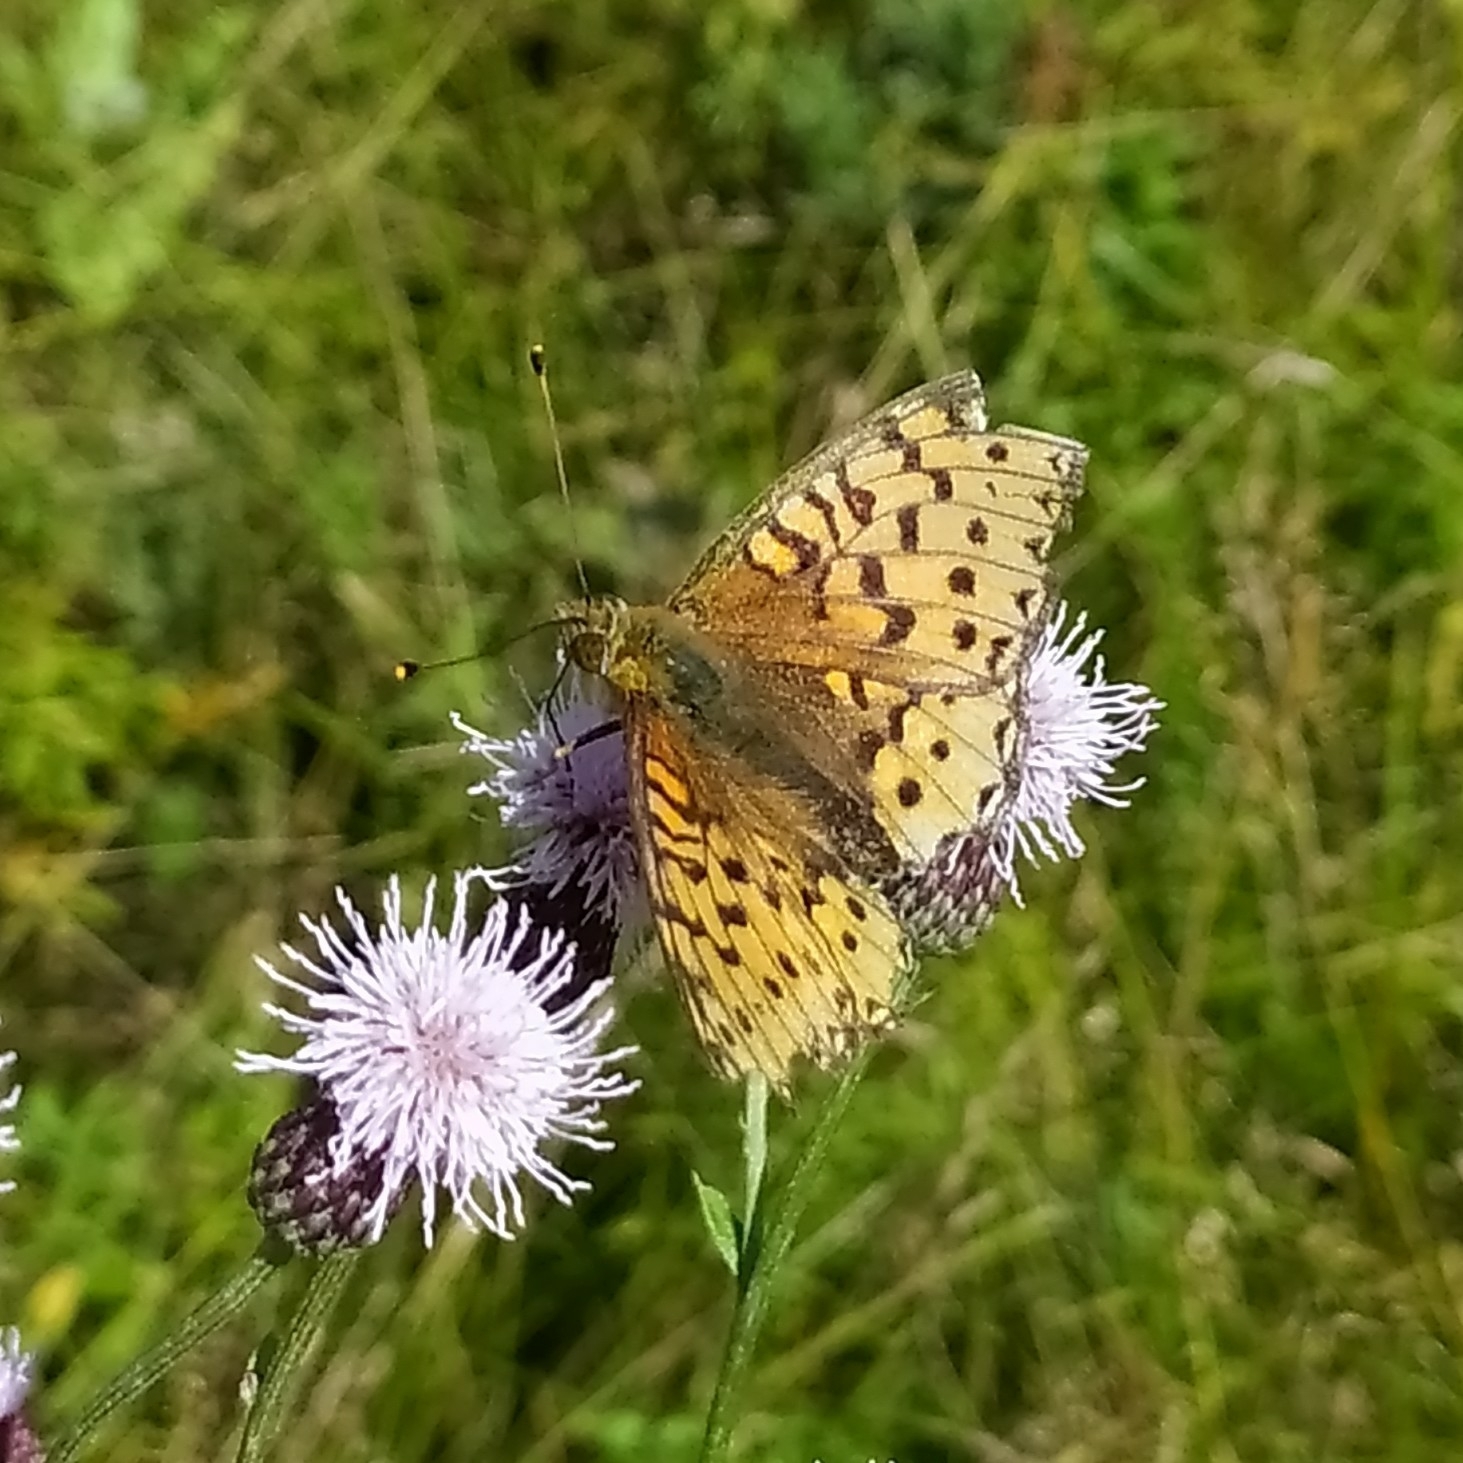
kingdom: Animalia
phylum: Arthropoda
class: Insecta
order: Lepidoptera
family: Nymphalidae
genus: Speyeria
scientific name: Speyeria aglaja
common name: Dark green fritillary
